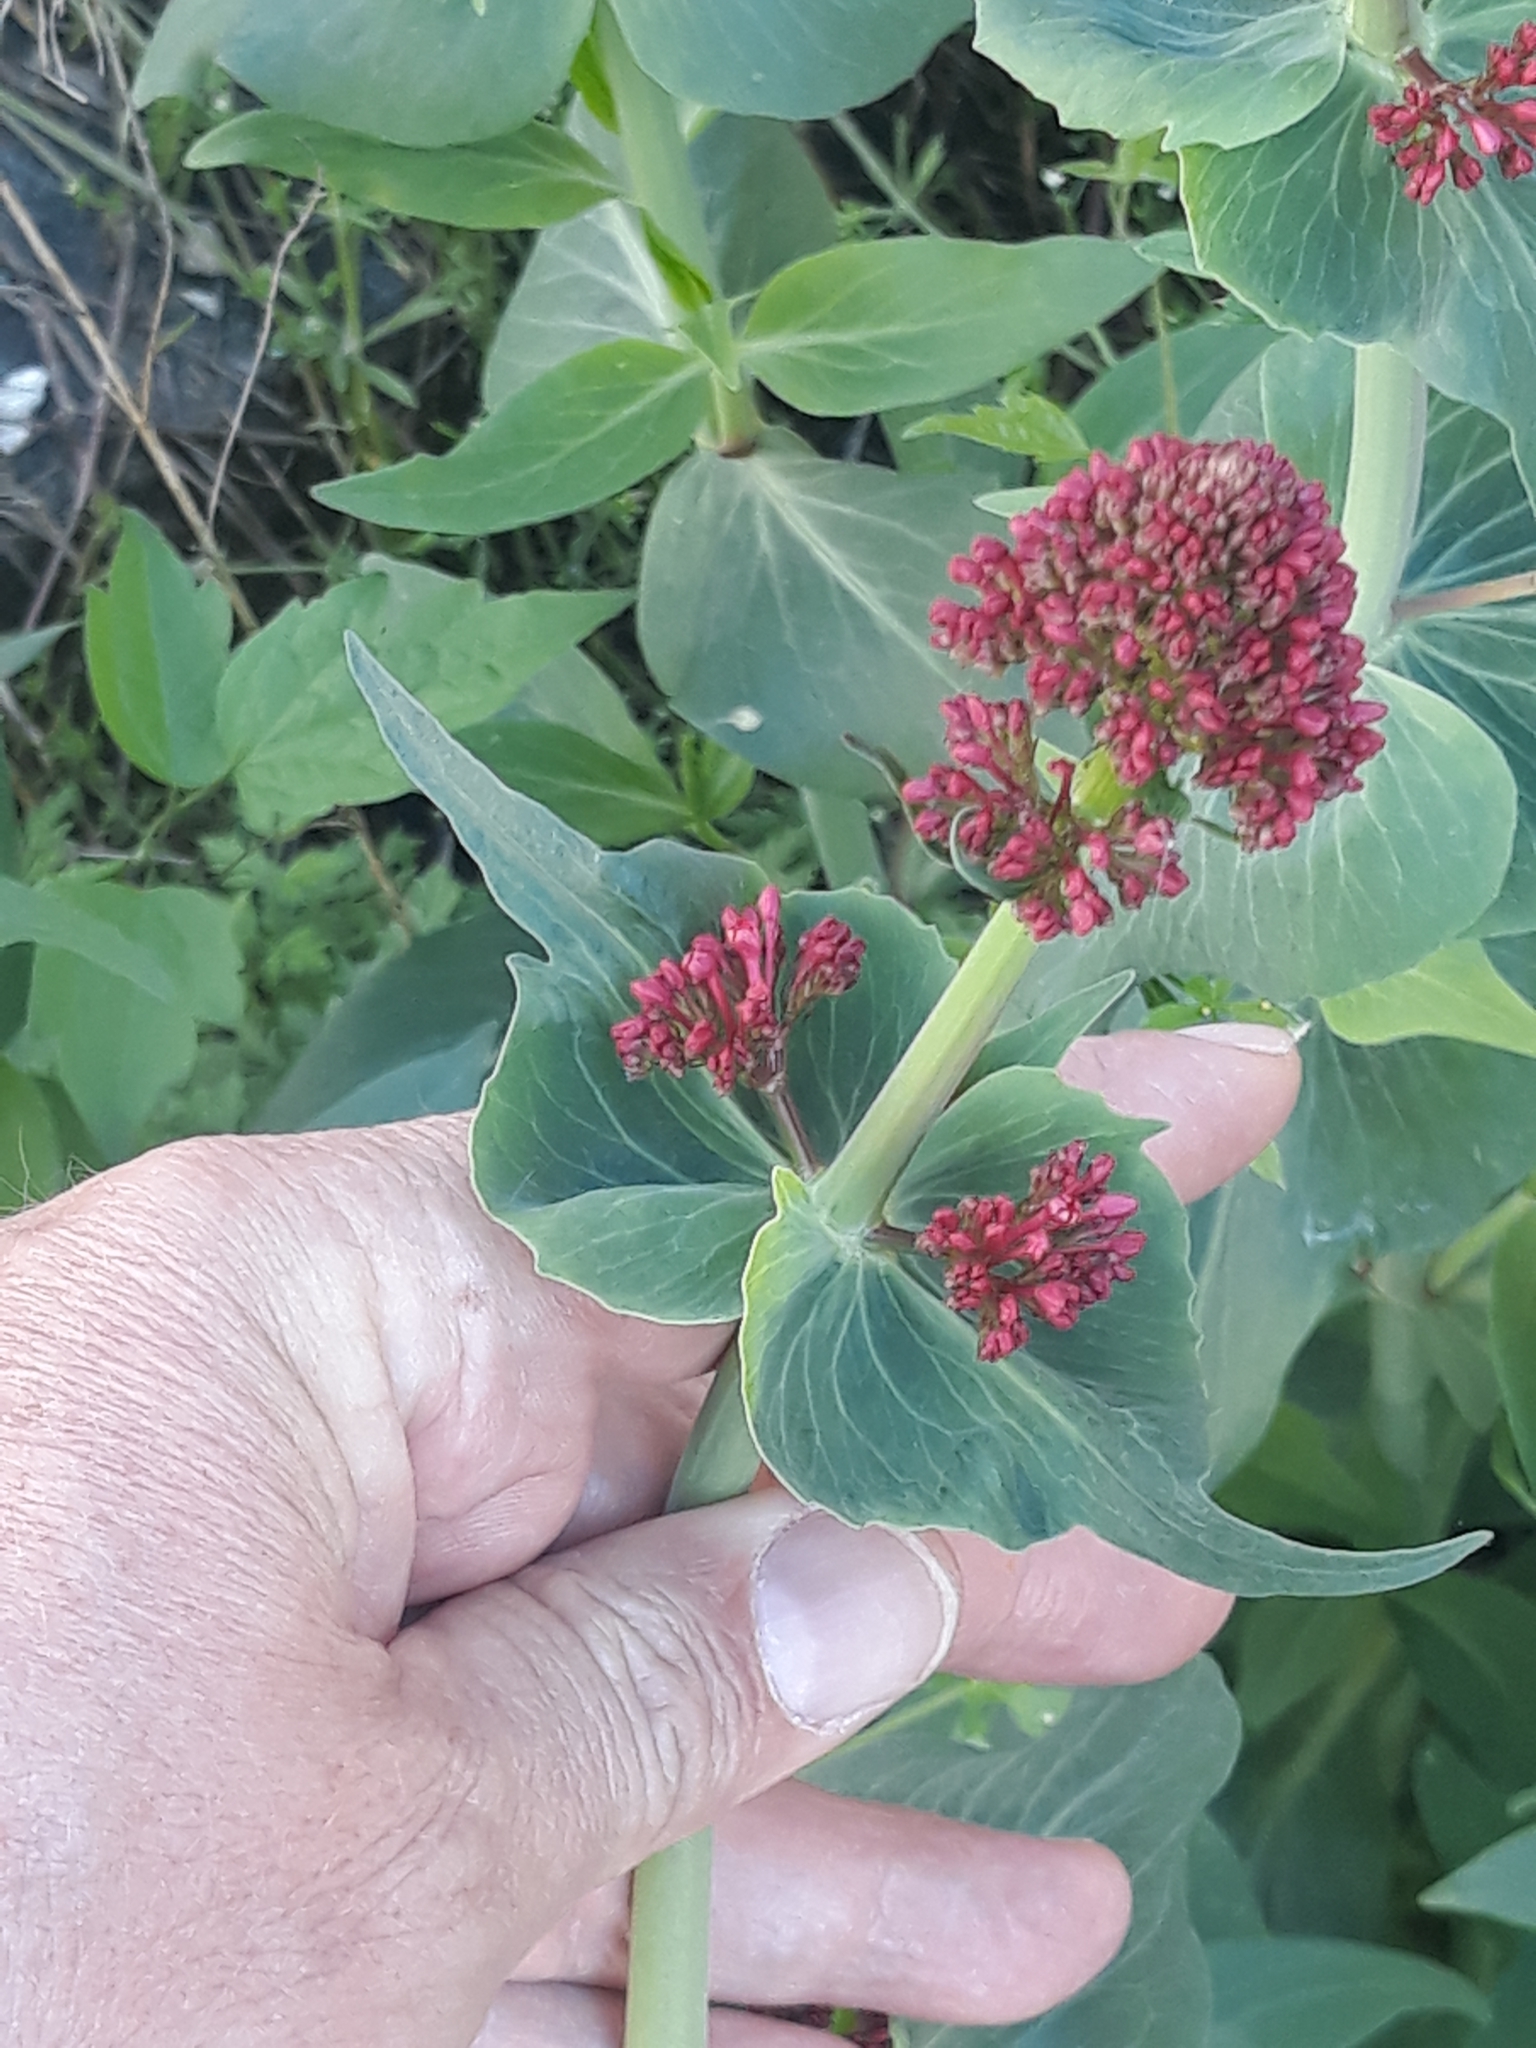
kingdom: Plantae
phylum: Tracheophyta
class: Magnoliopsida
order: Dipsacales
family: Caprifoliaceae
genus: Centranthus
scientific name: Centranthus ruber
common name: Red valerian
